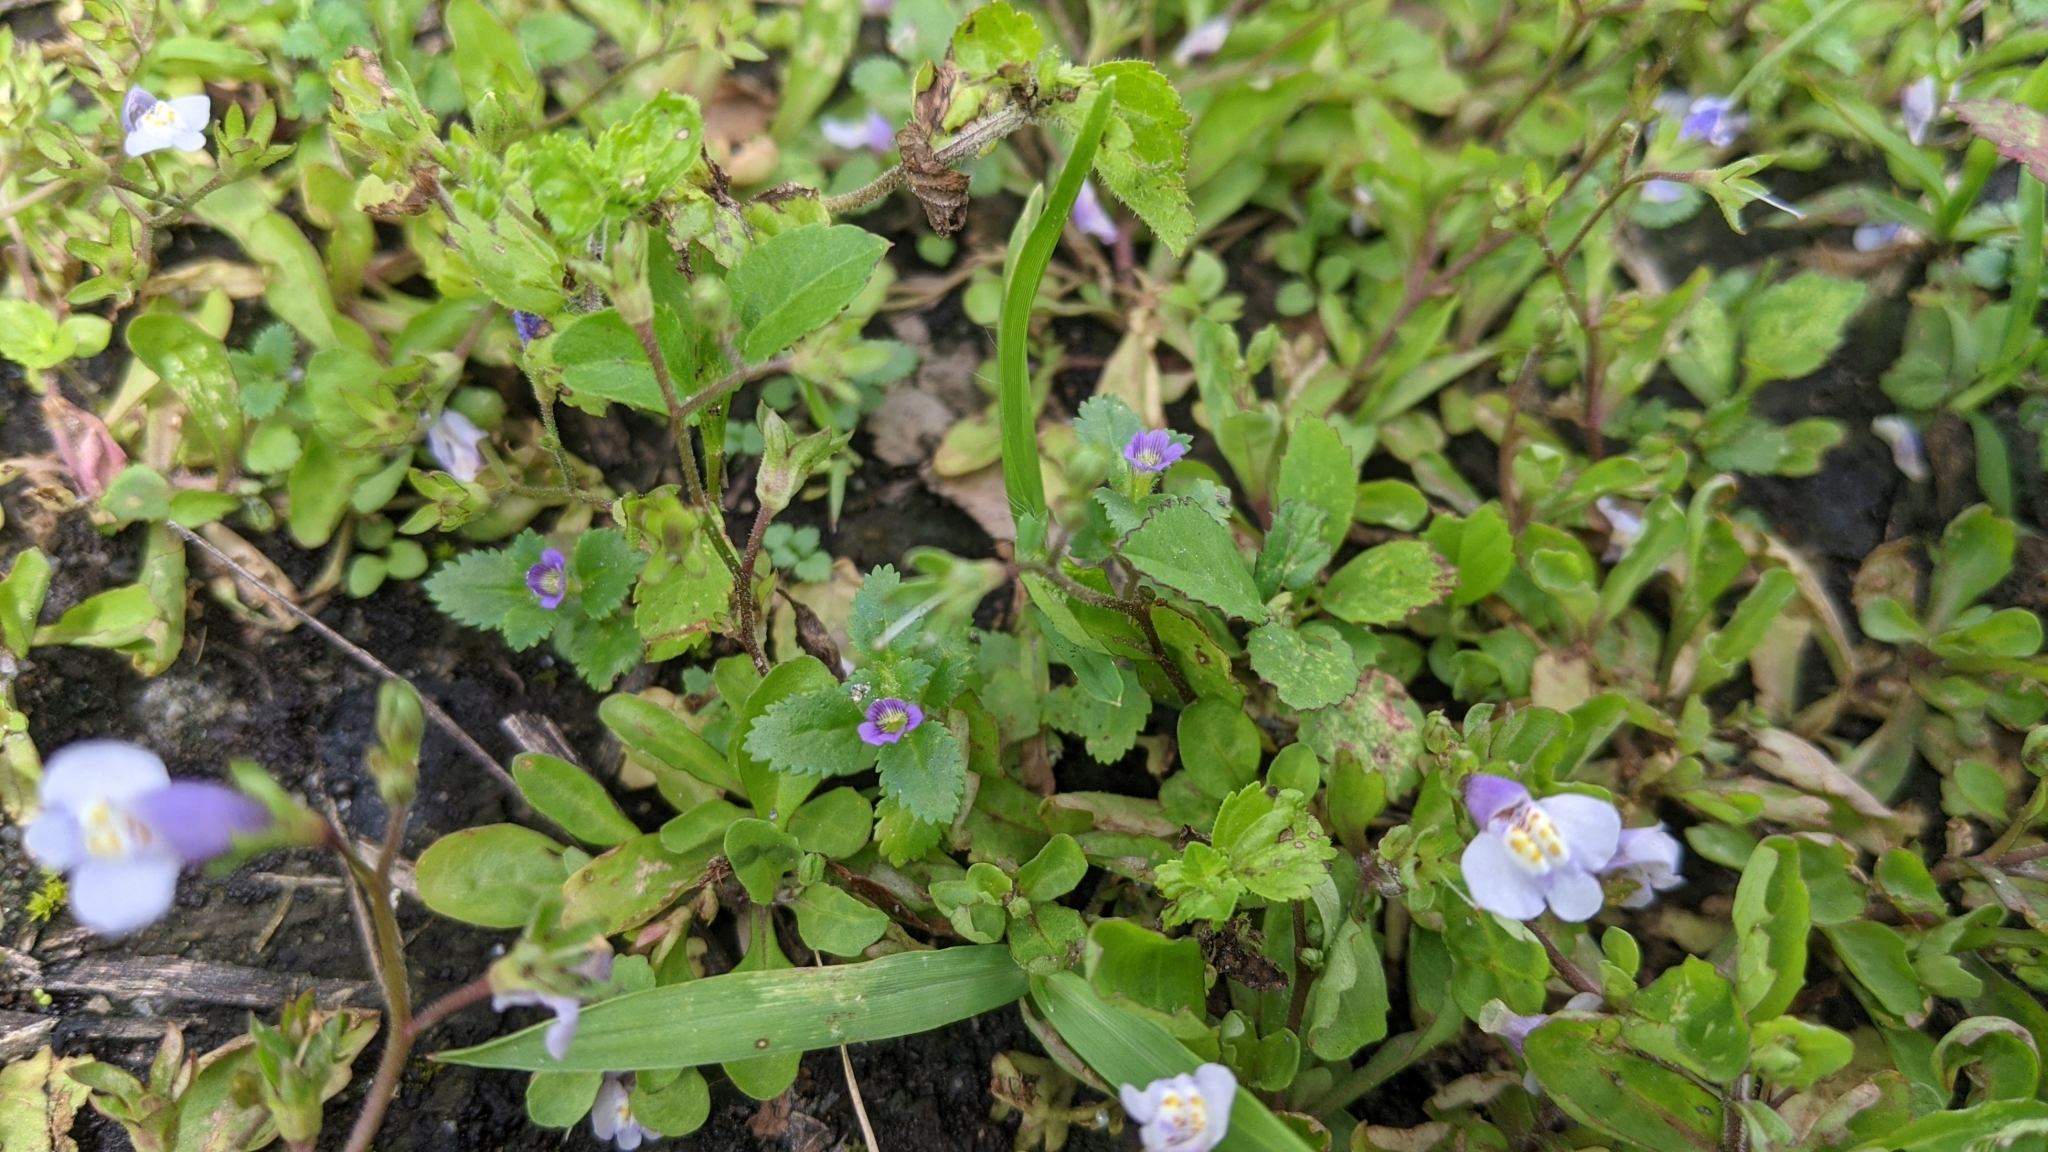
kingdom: Plantae
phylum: Tracheophyta
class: Magnoliopsida
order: Lamiales
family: Plantaginaceae
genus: Stemodia
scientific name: Stemodia verticillata
